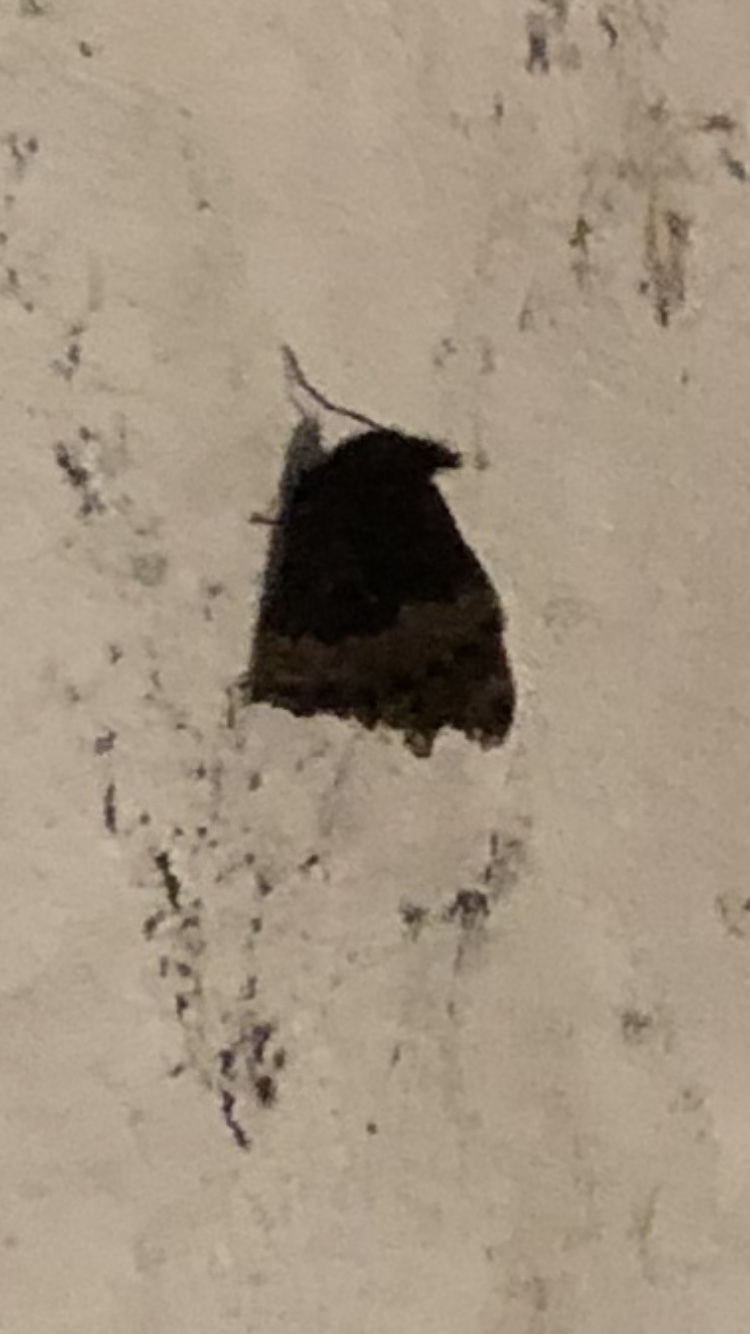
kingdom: Animalia
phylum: Arthropoda
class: Insecta
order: Lepidoptera
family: Nymphalidae
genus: Aglais
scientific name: Aglais urticae
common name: Small tortoiseshell
